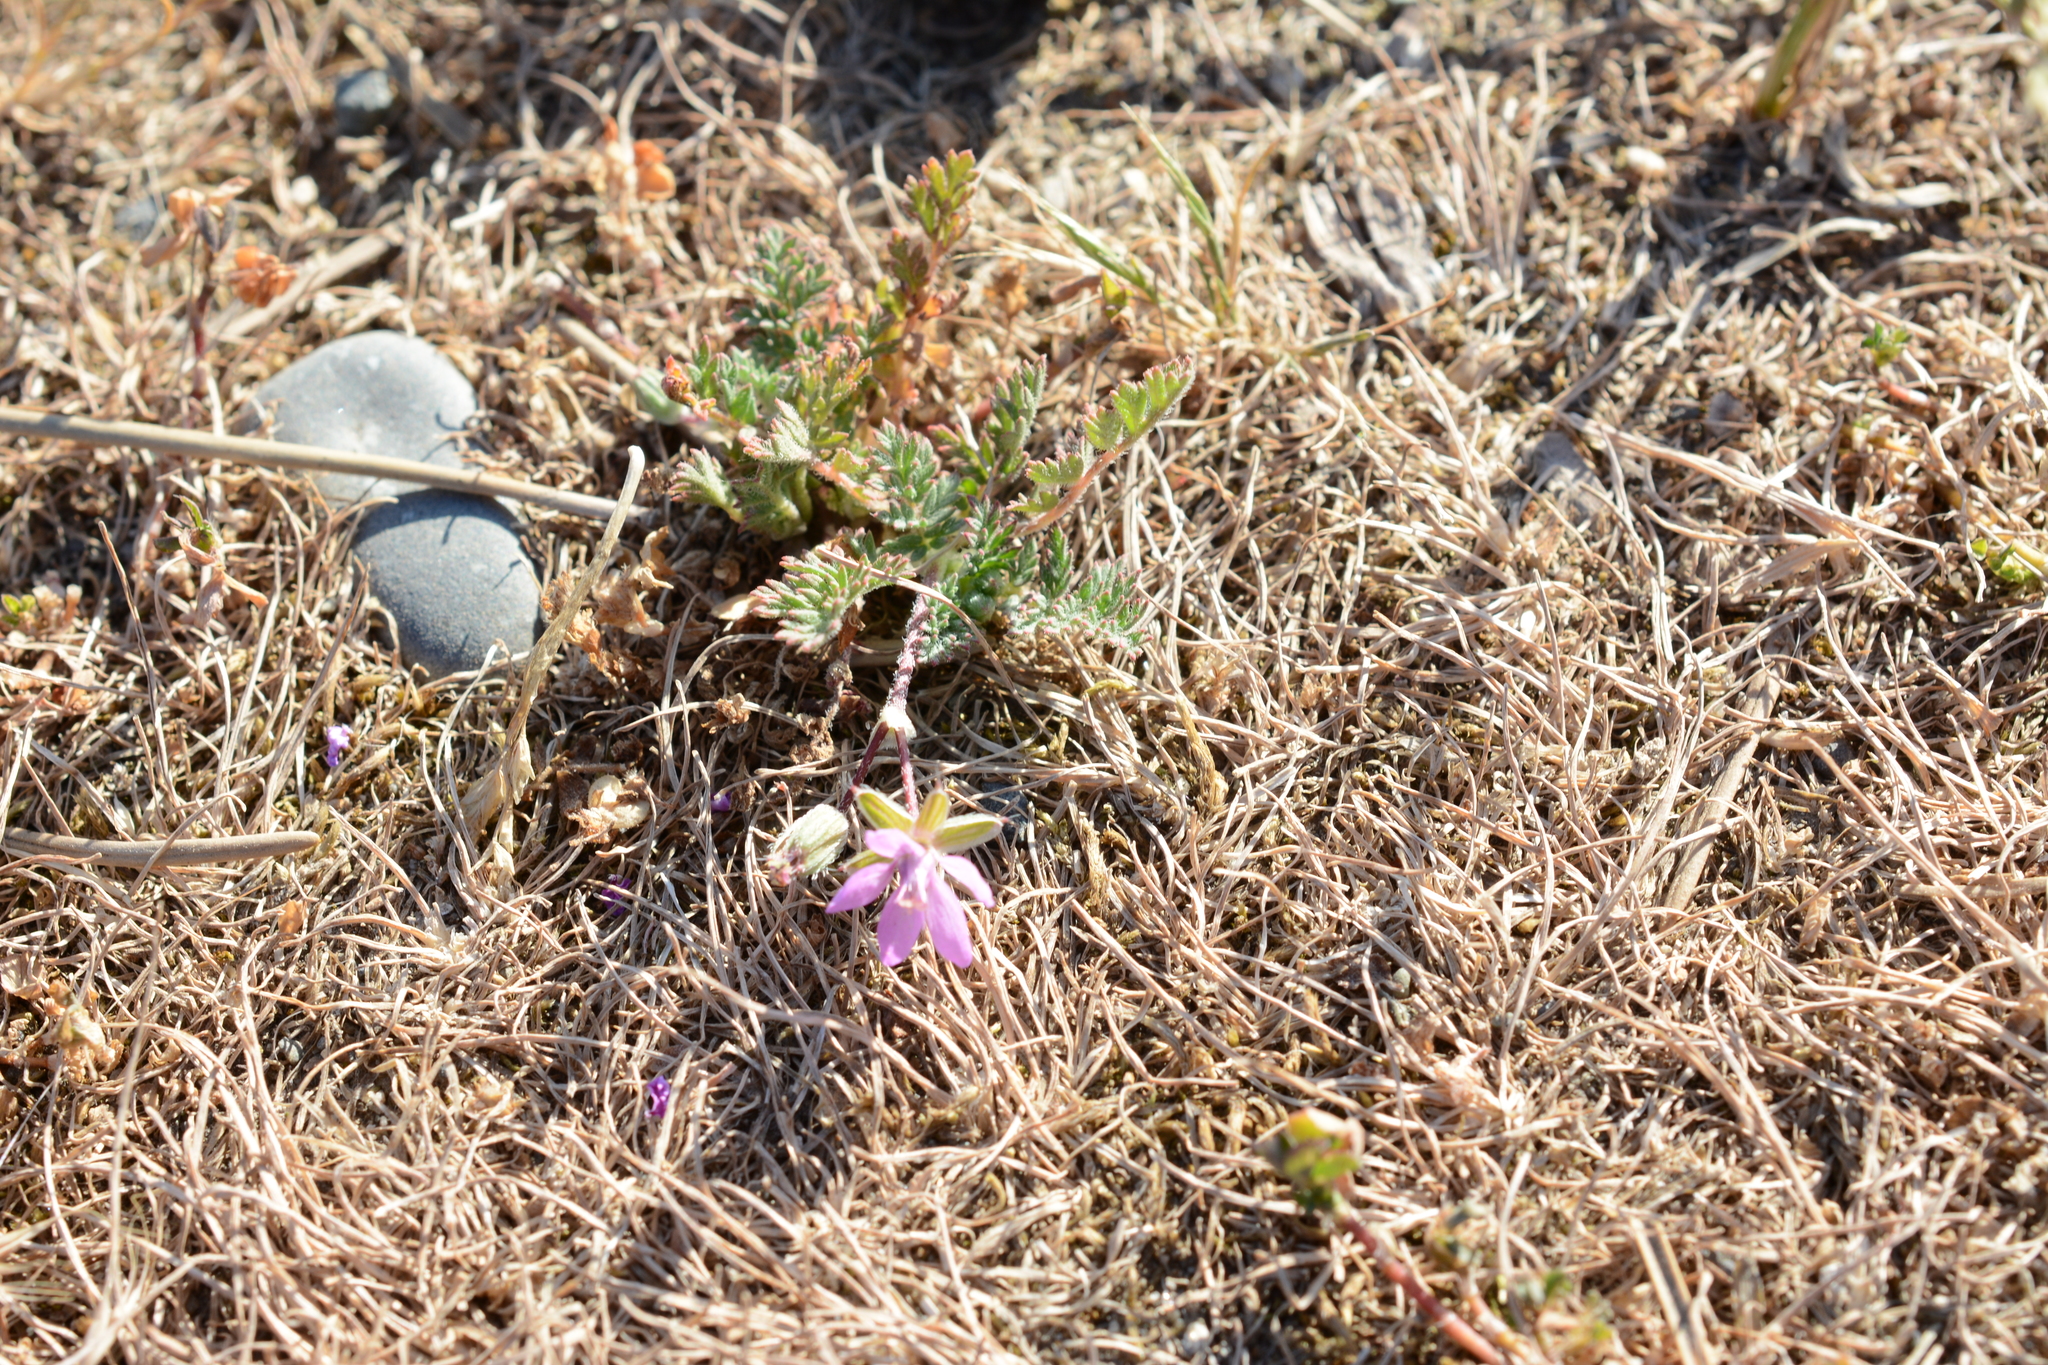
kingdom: Plantae
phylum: Tracheophyta
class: Magnoliopsida
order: Geraniales
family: Geraniaceae
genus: Erodium
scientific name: Erodium cicutarium
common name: Common stork's-bill
